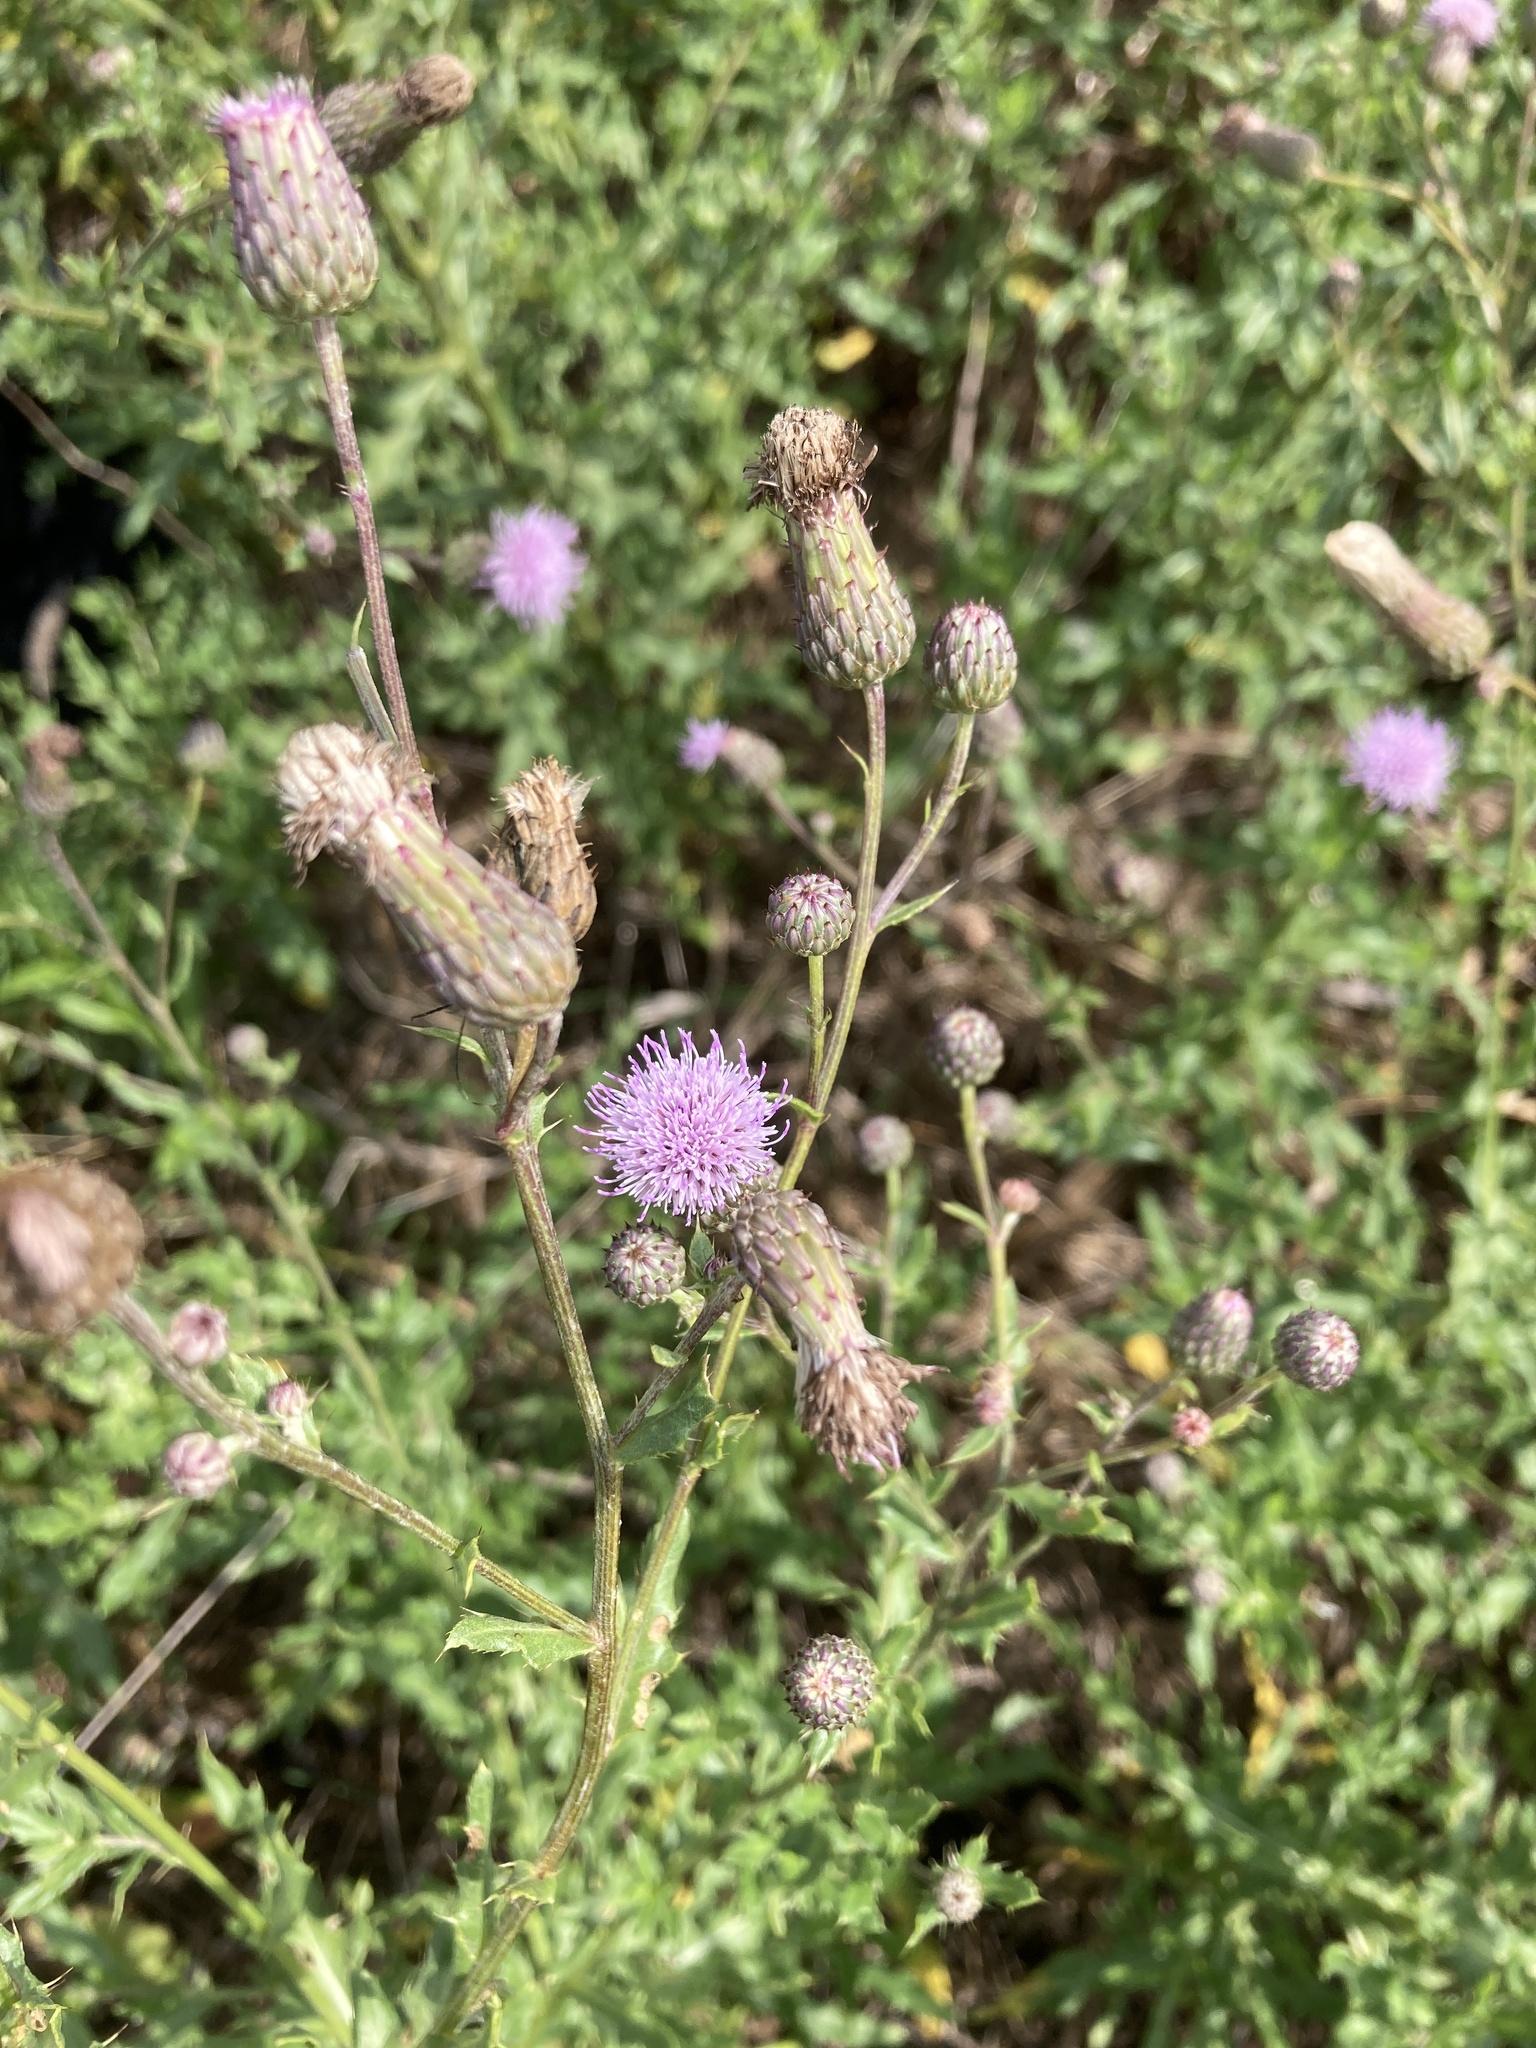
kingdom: Plantae
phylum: Tracheophyta
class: Magnoliopsida
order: Asterales
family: Asteraceae
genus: Cirsium
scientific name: Cirsium arvense
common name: Creeping thistle
